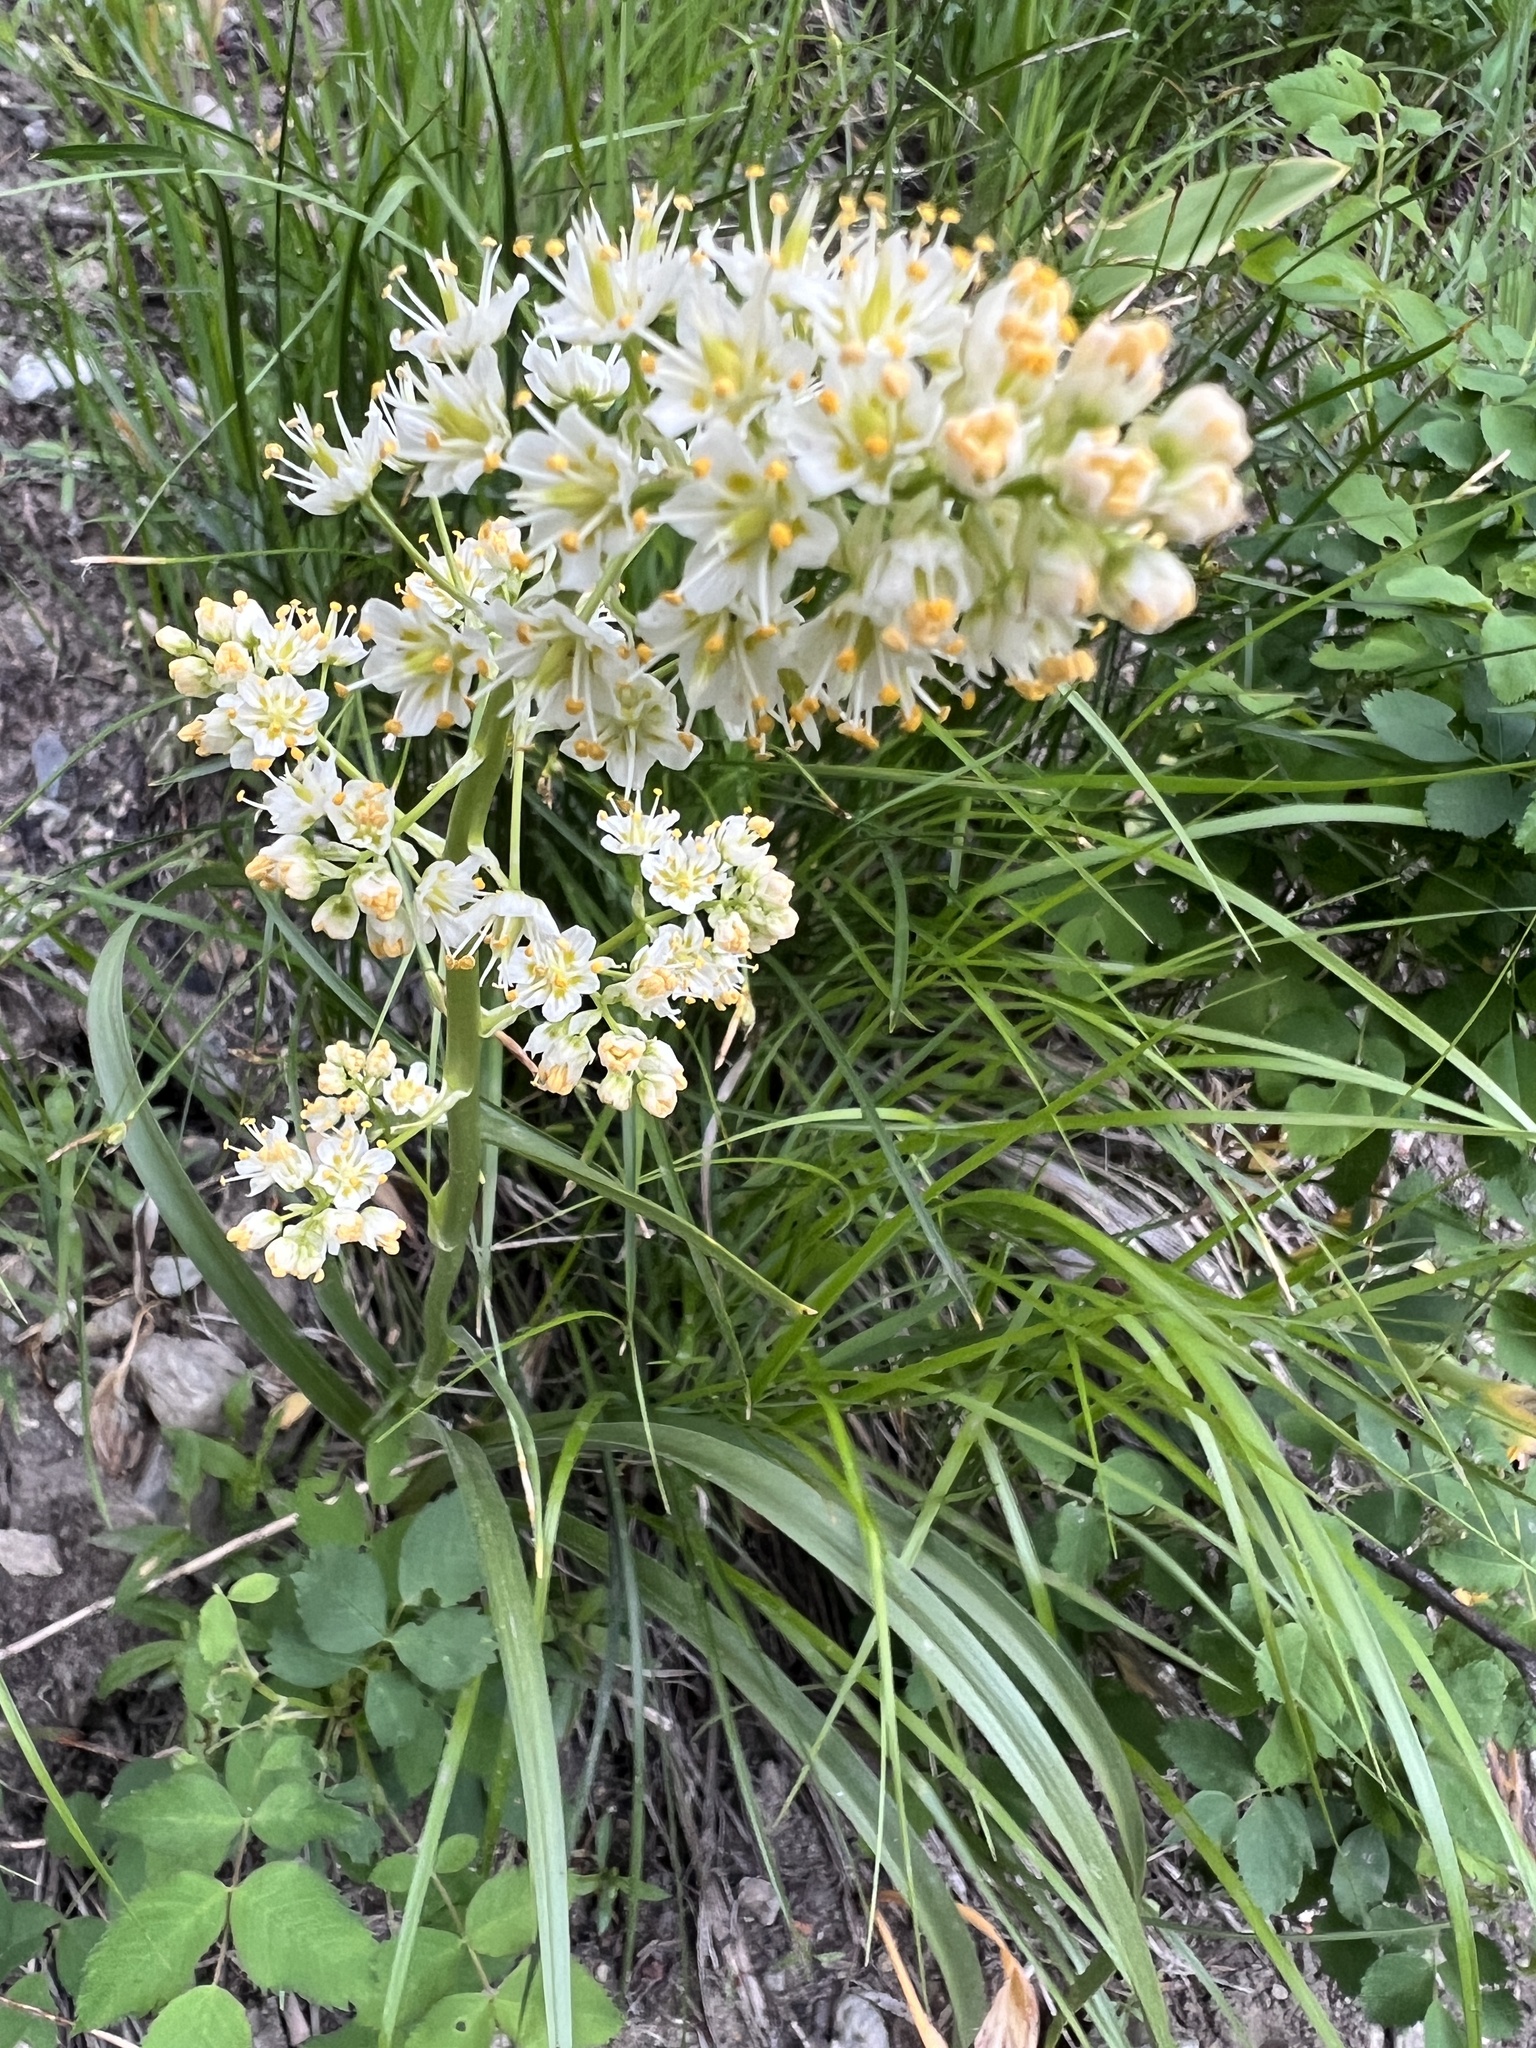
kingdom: Plantae
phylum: Tracheophyta
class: Liliopsida
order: Liliales
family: Melanthiaceae
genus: Toxicoscordion
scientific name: Toxicoscordion paniculatum
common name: Foothill death camas
